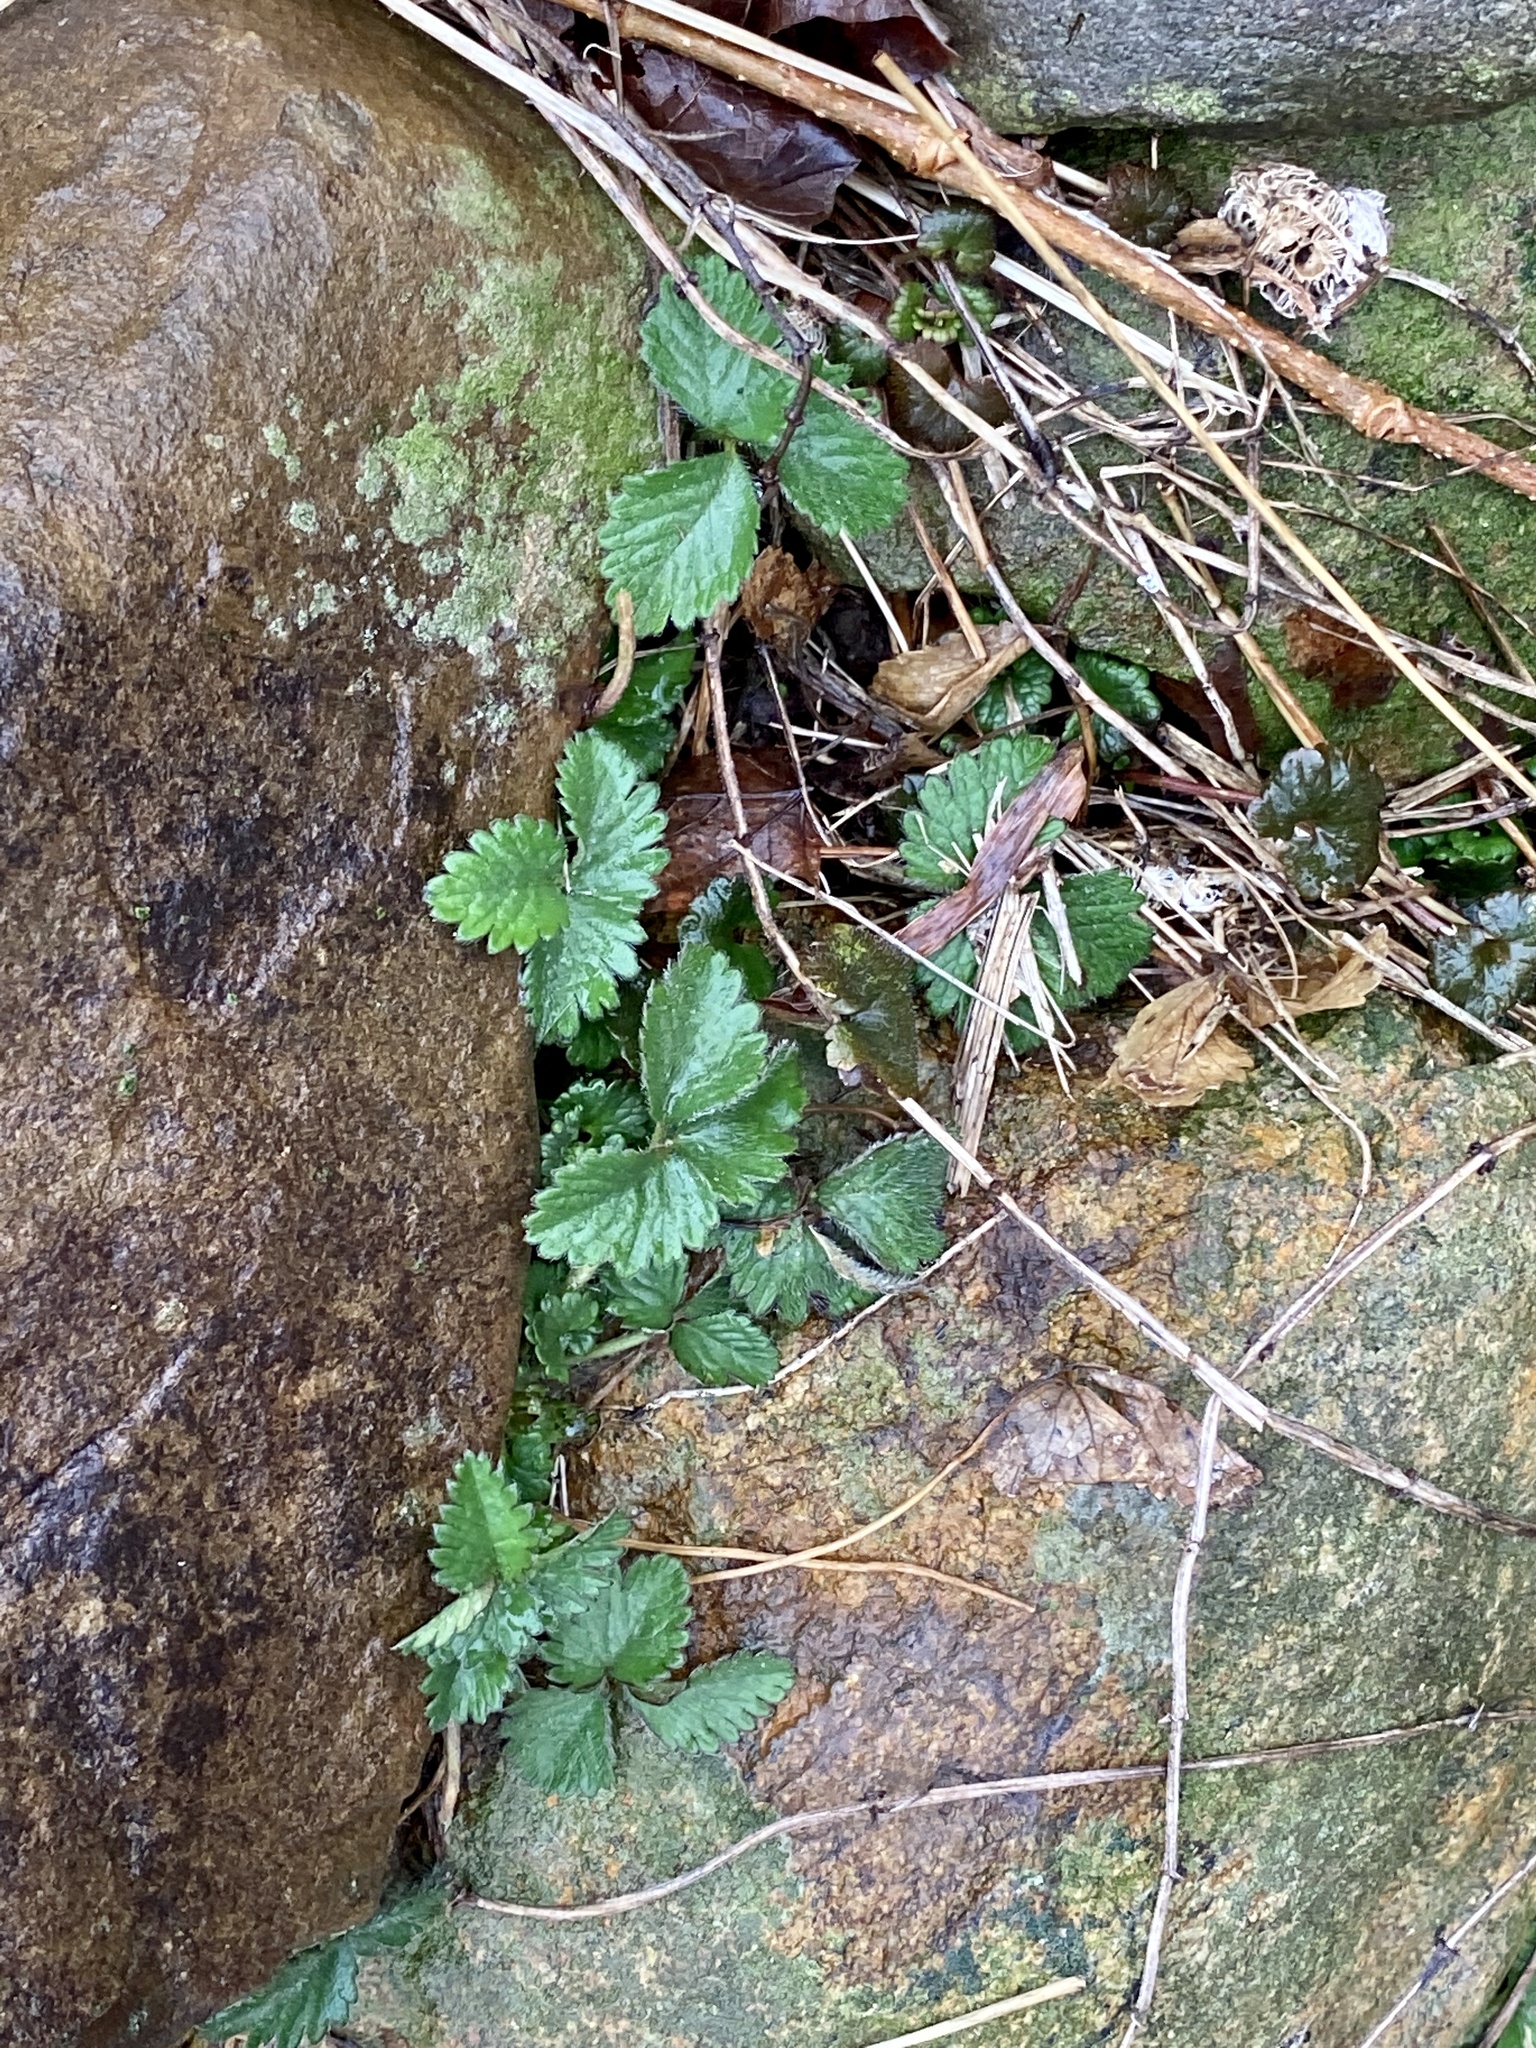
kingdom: Plantae
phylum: Tracheophyta
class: Magnoliopsida
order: Rosales
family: Rosaceae
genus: Potentilla
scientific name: Potentilla indica
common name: Yellow-flowered strawberry
